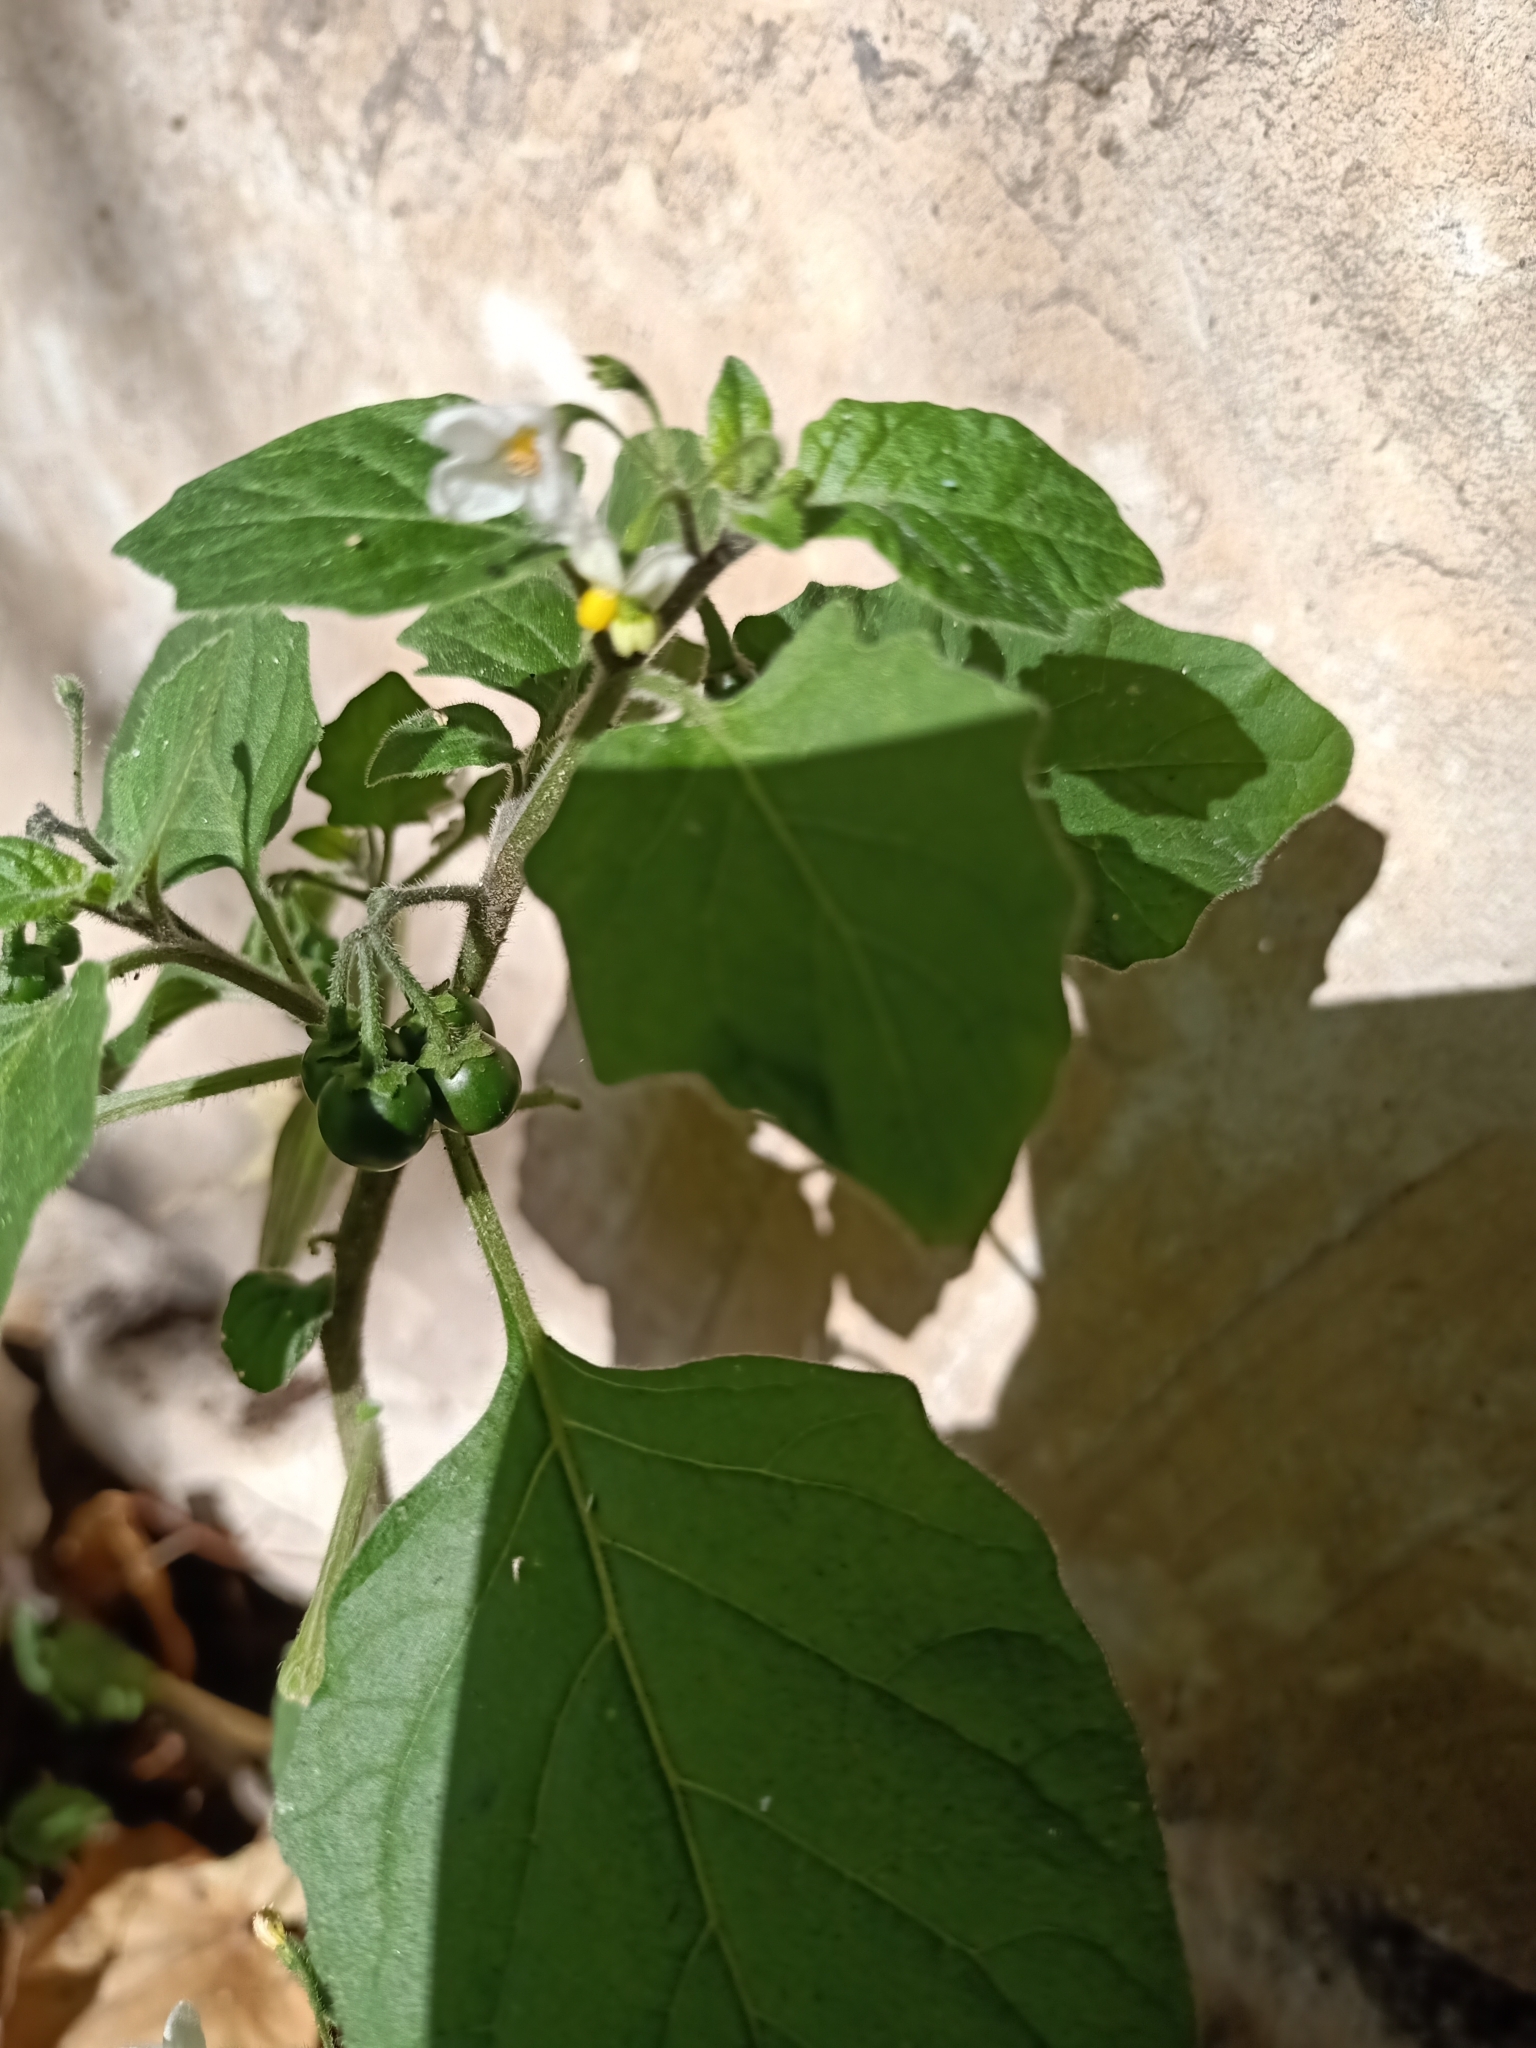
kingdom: Plantae
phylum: Tracheophyta
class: Magnoliopsida
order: Solanales
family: Solanaceae
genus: Solanum
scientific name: Solanum villosum
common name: Red nightshade
